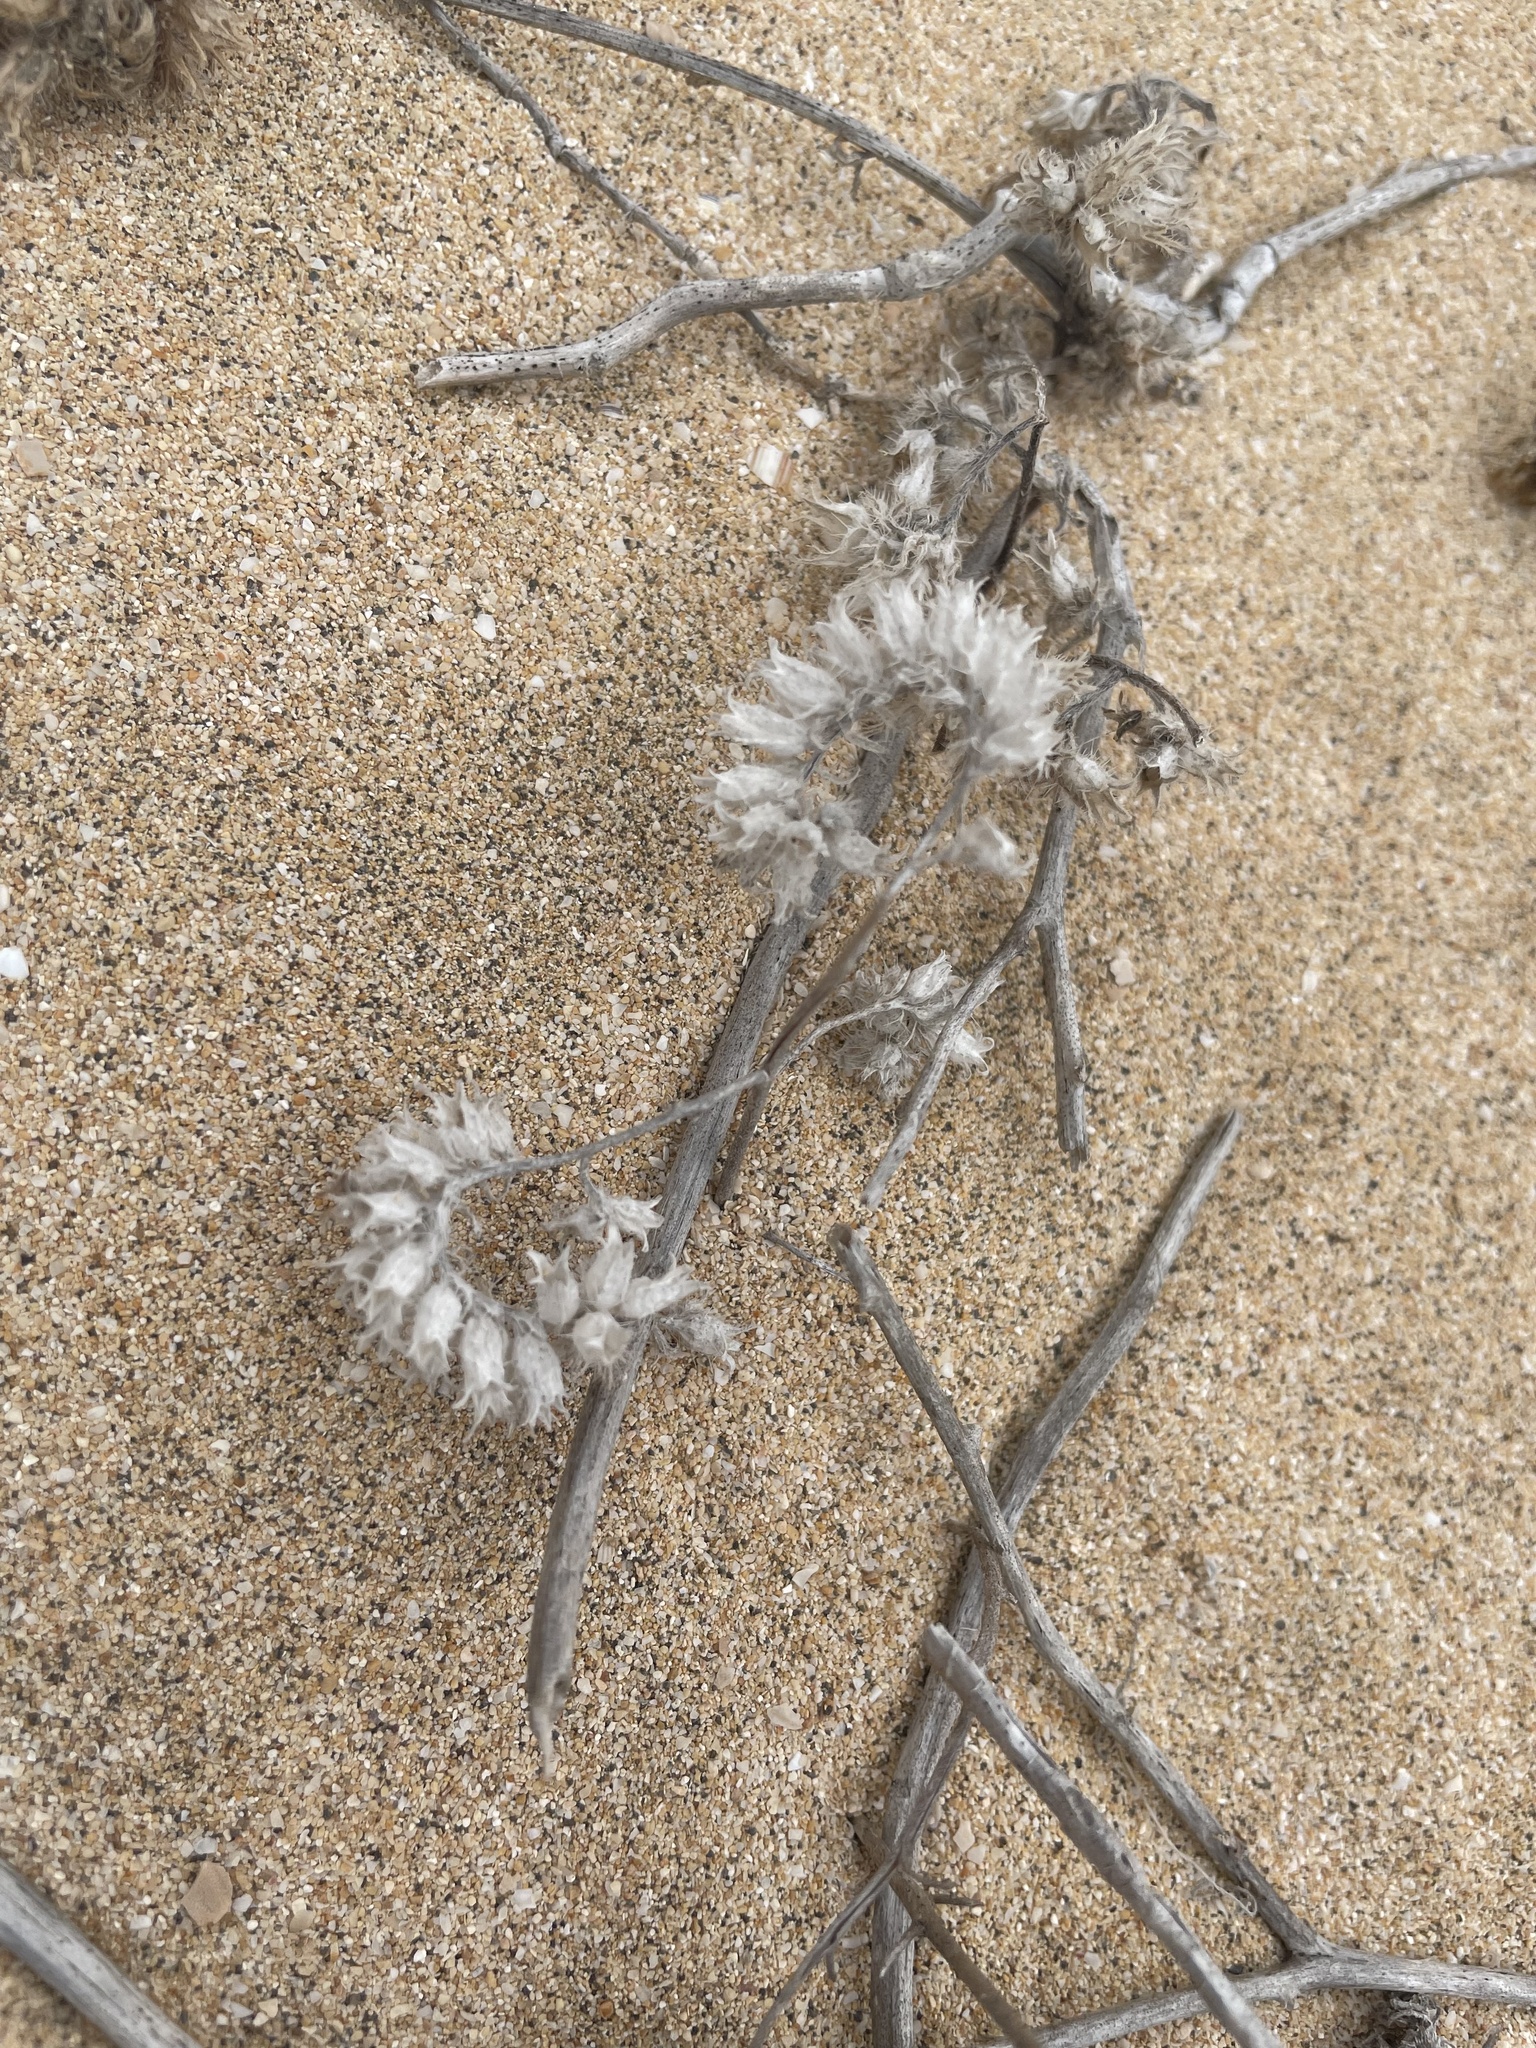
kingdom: Plantae
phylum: Tracheophyta
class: Magnoliopsida
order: Boraginales
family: Boraginaceae
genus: Mairetis
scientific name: Mairetis microsperma
